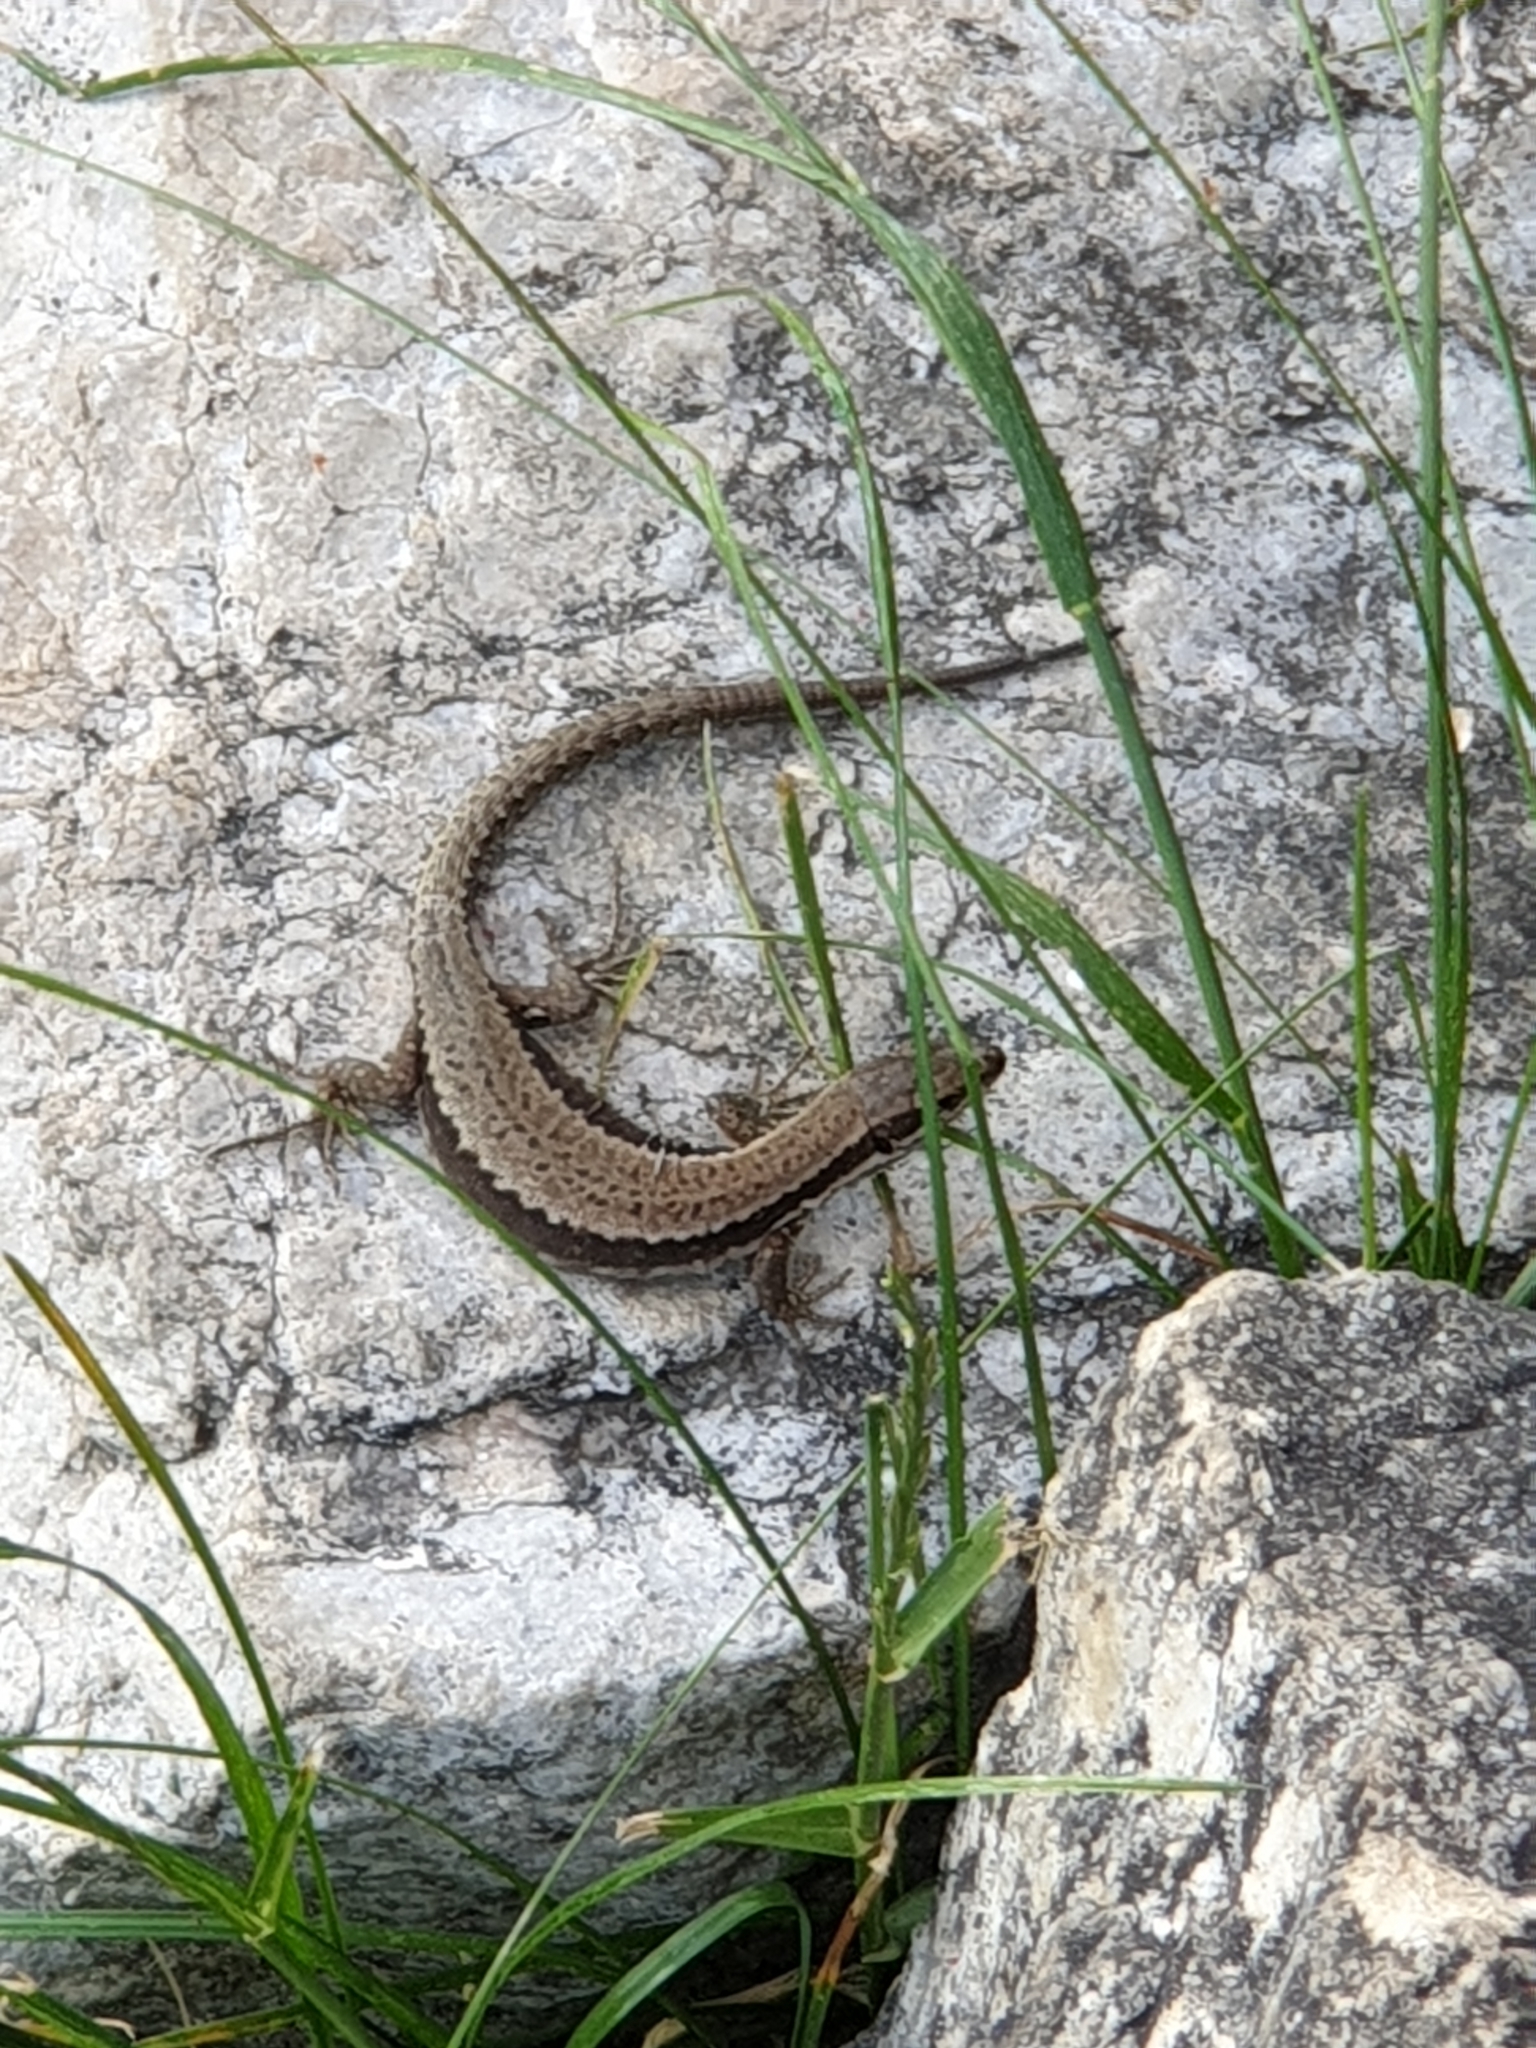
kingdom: Animalia
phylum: Chordata
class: Squamata
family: Lacertidae
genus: Podarcis
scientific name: Podarcis muralis
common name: Common wall lizard
